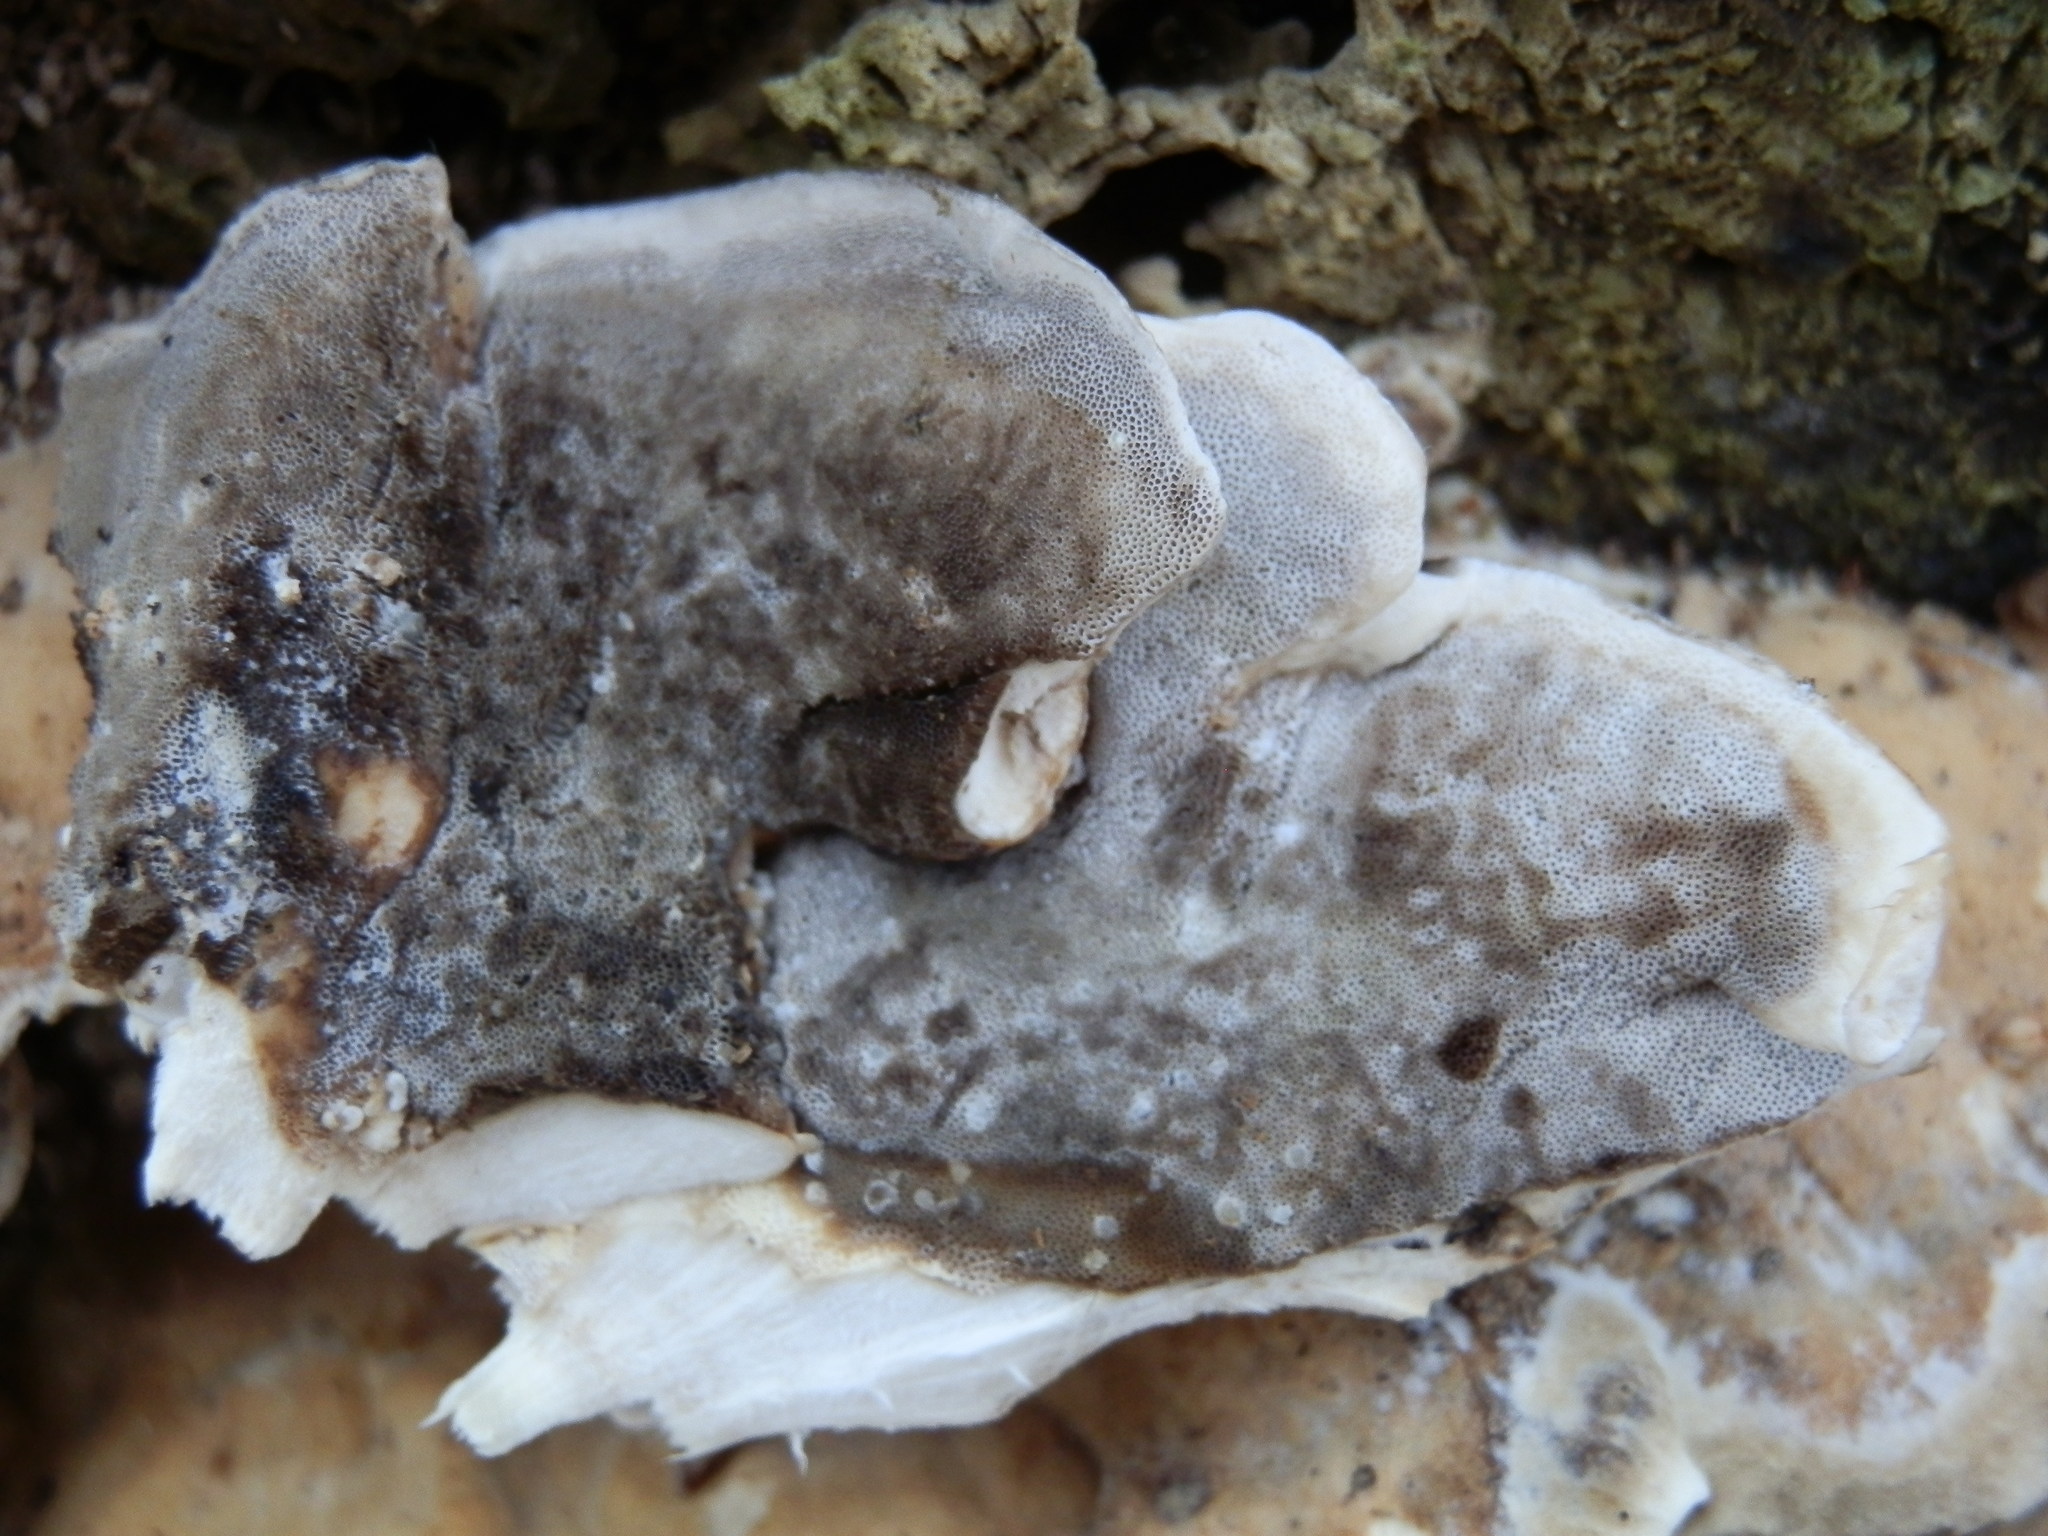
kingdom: Fungi
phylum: Basidiomycota
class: Agaricomycetes
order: Polyporales
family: Phanerochaetaceae
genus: Bjerkandera
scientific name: Bjerkandera adusta
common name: Smoky bracket
